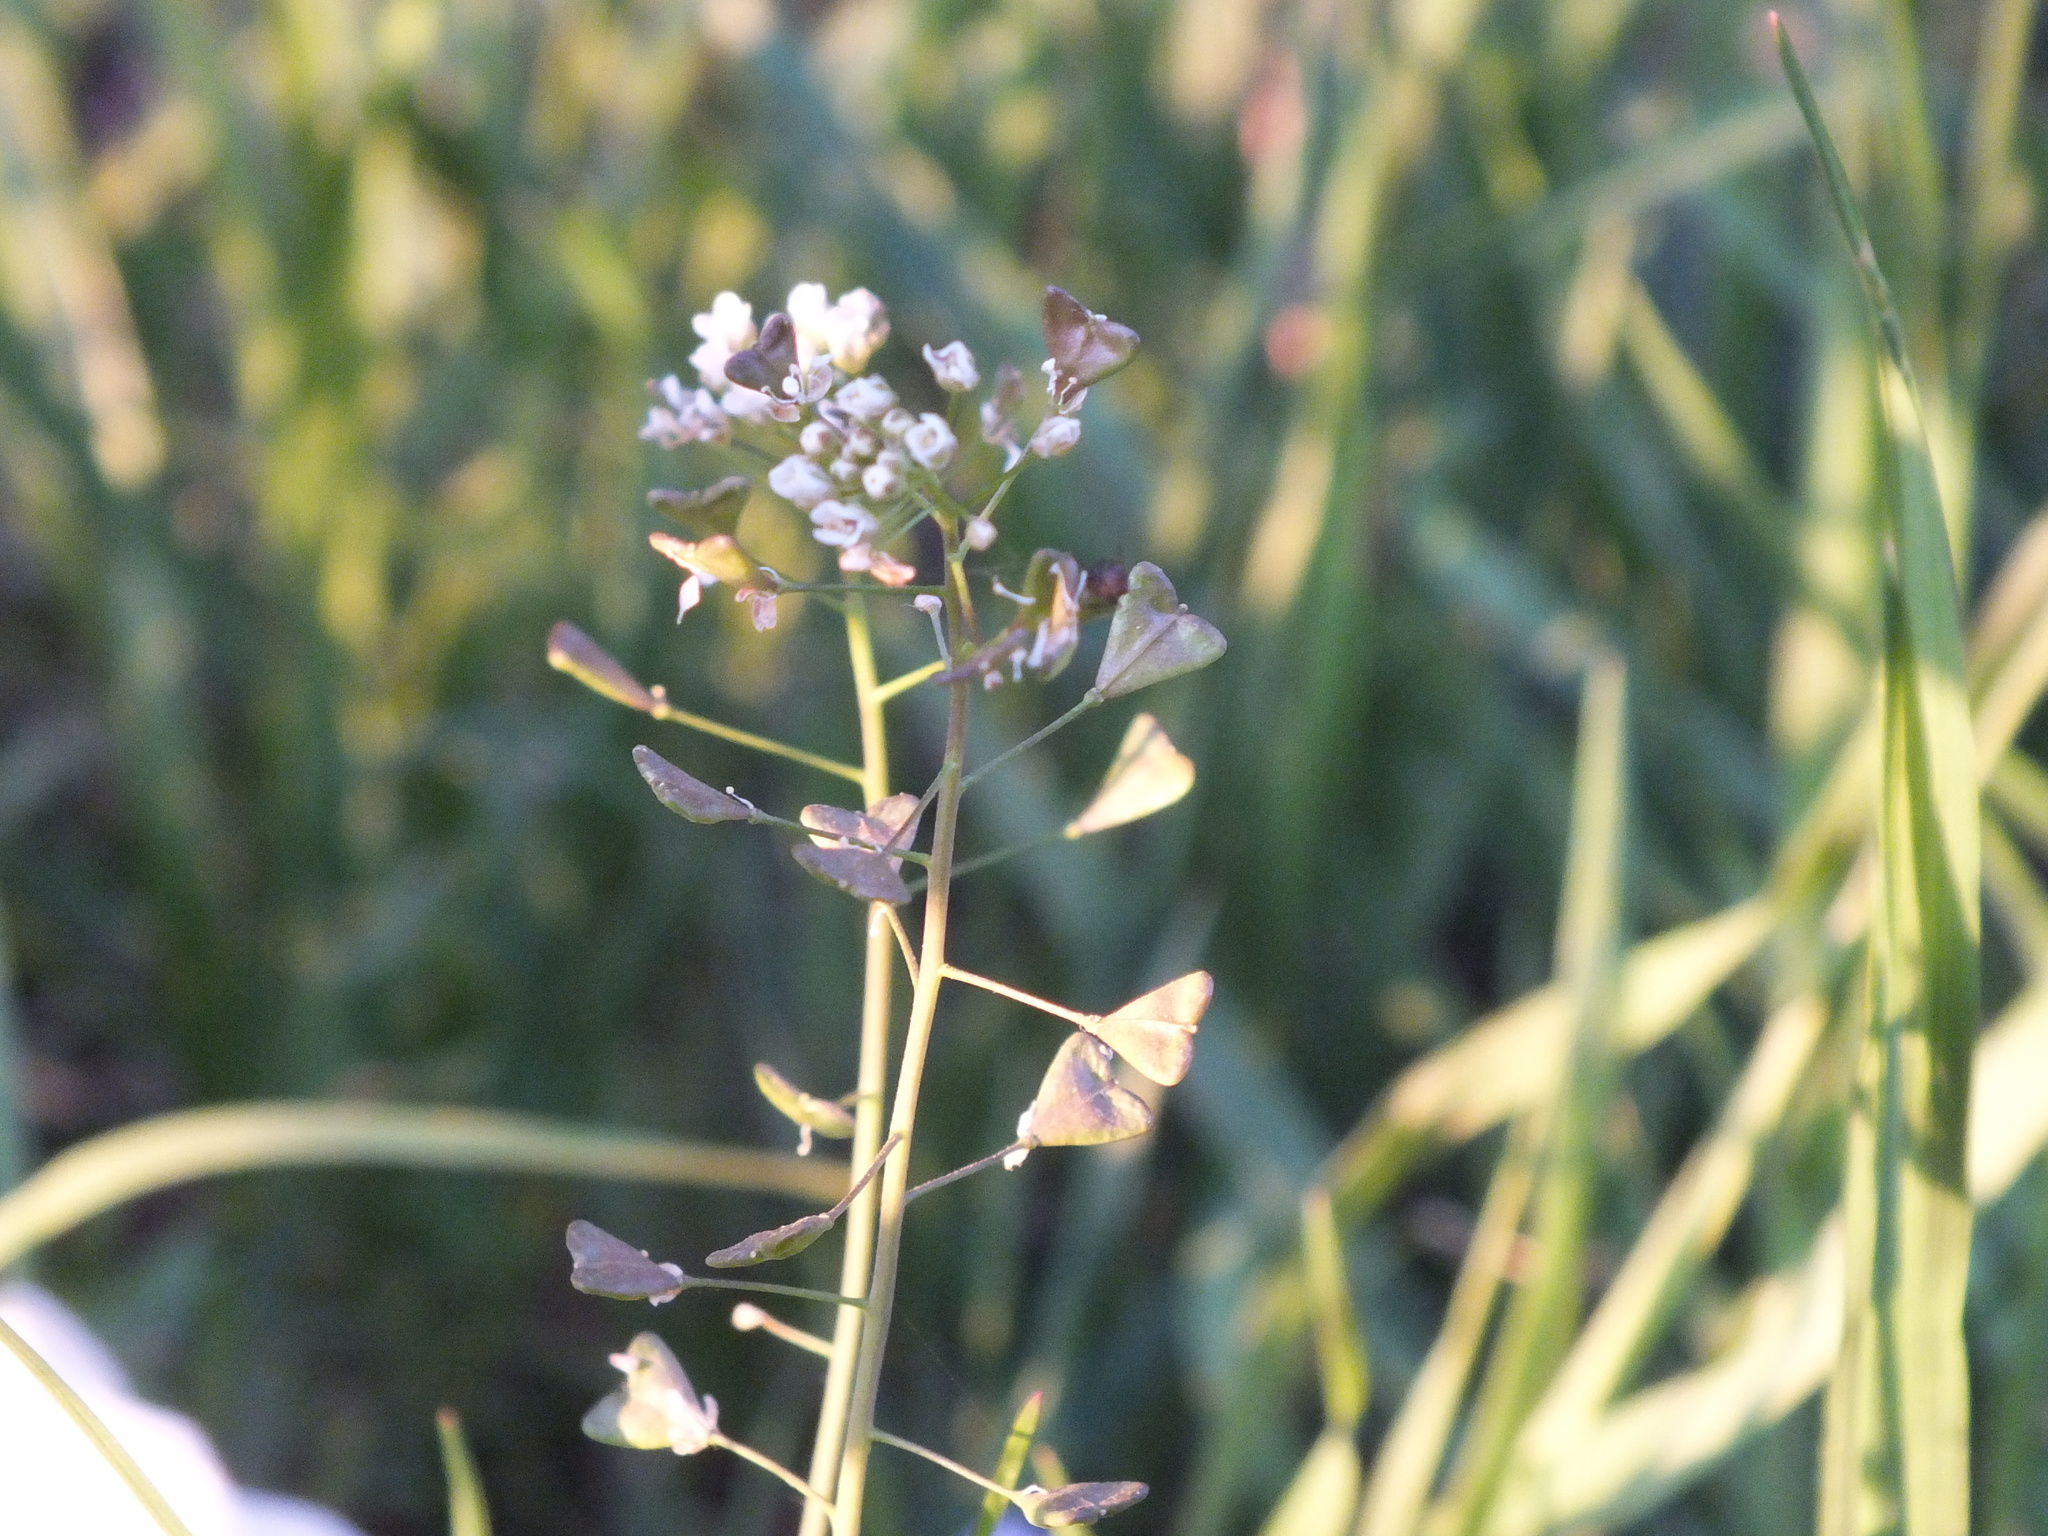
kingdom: Plantae
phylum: Tracheophyta
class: Magnoliopsida
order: Brassicales
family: Brassicaceae
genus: Capsella
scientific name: Capsella bursa-pastoris
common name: Shepherd's purse
